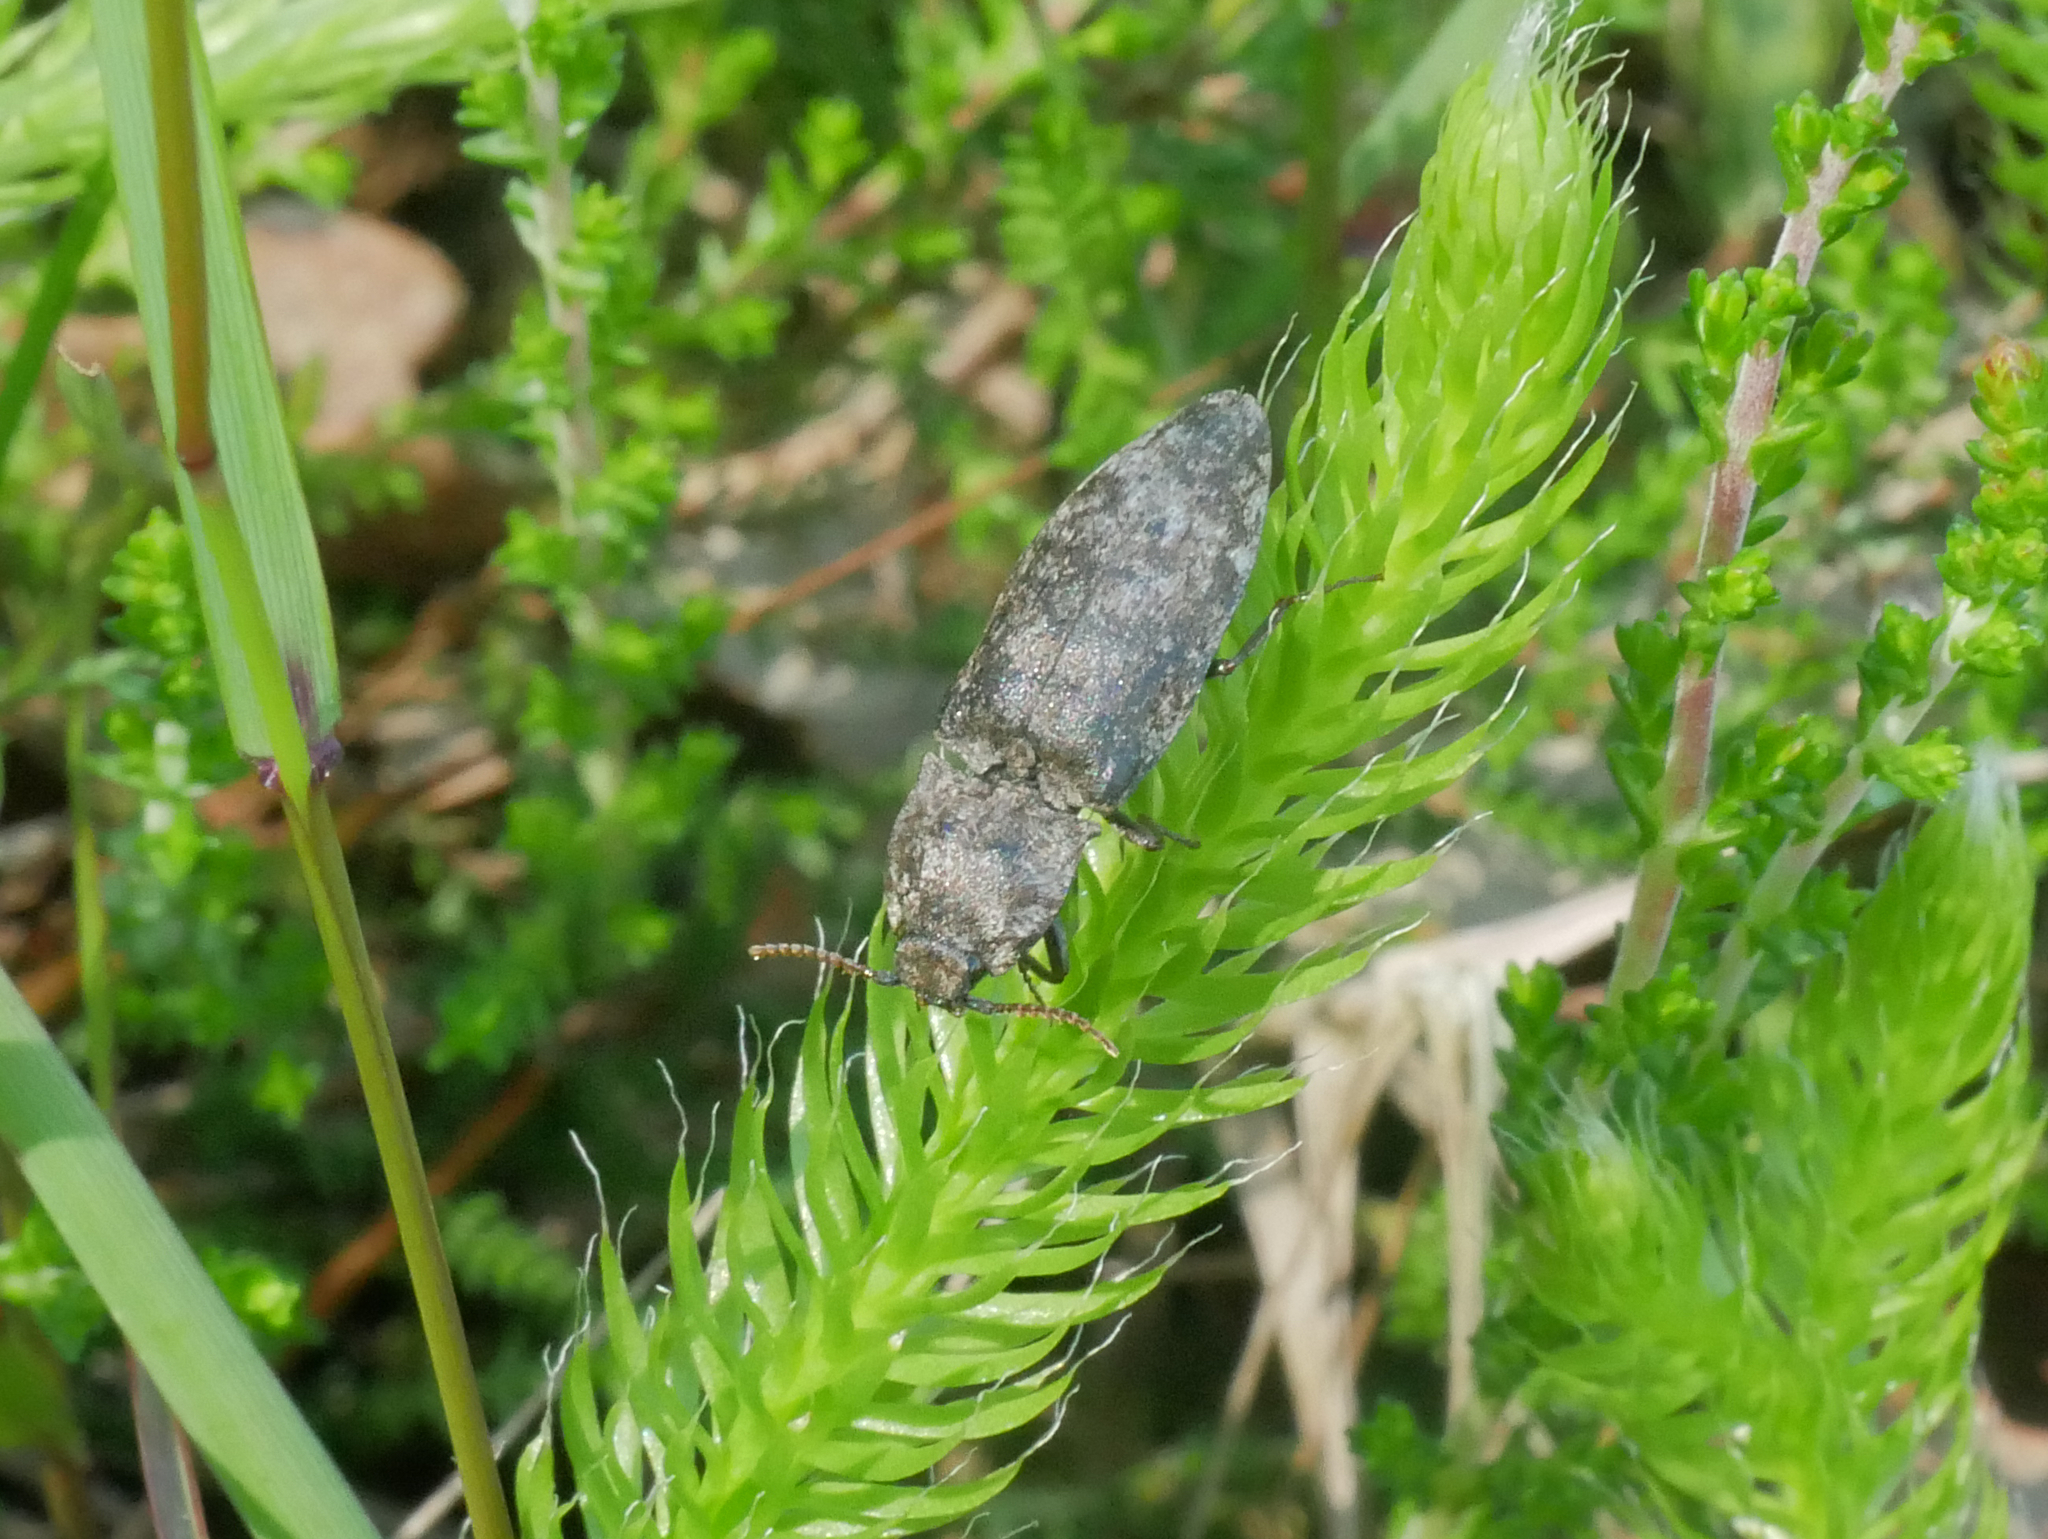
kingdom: Animalia
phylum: Arthropoda
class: Insecta
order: Coleoptera
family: Elateridae
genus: Agrypnus
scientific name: Agrypnus murinus
